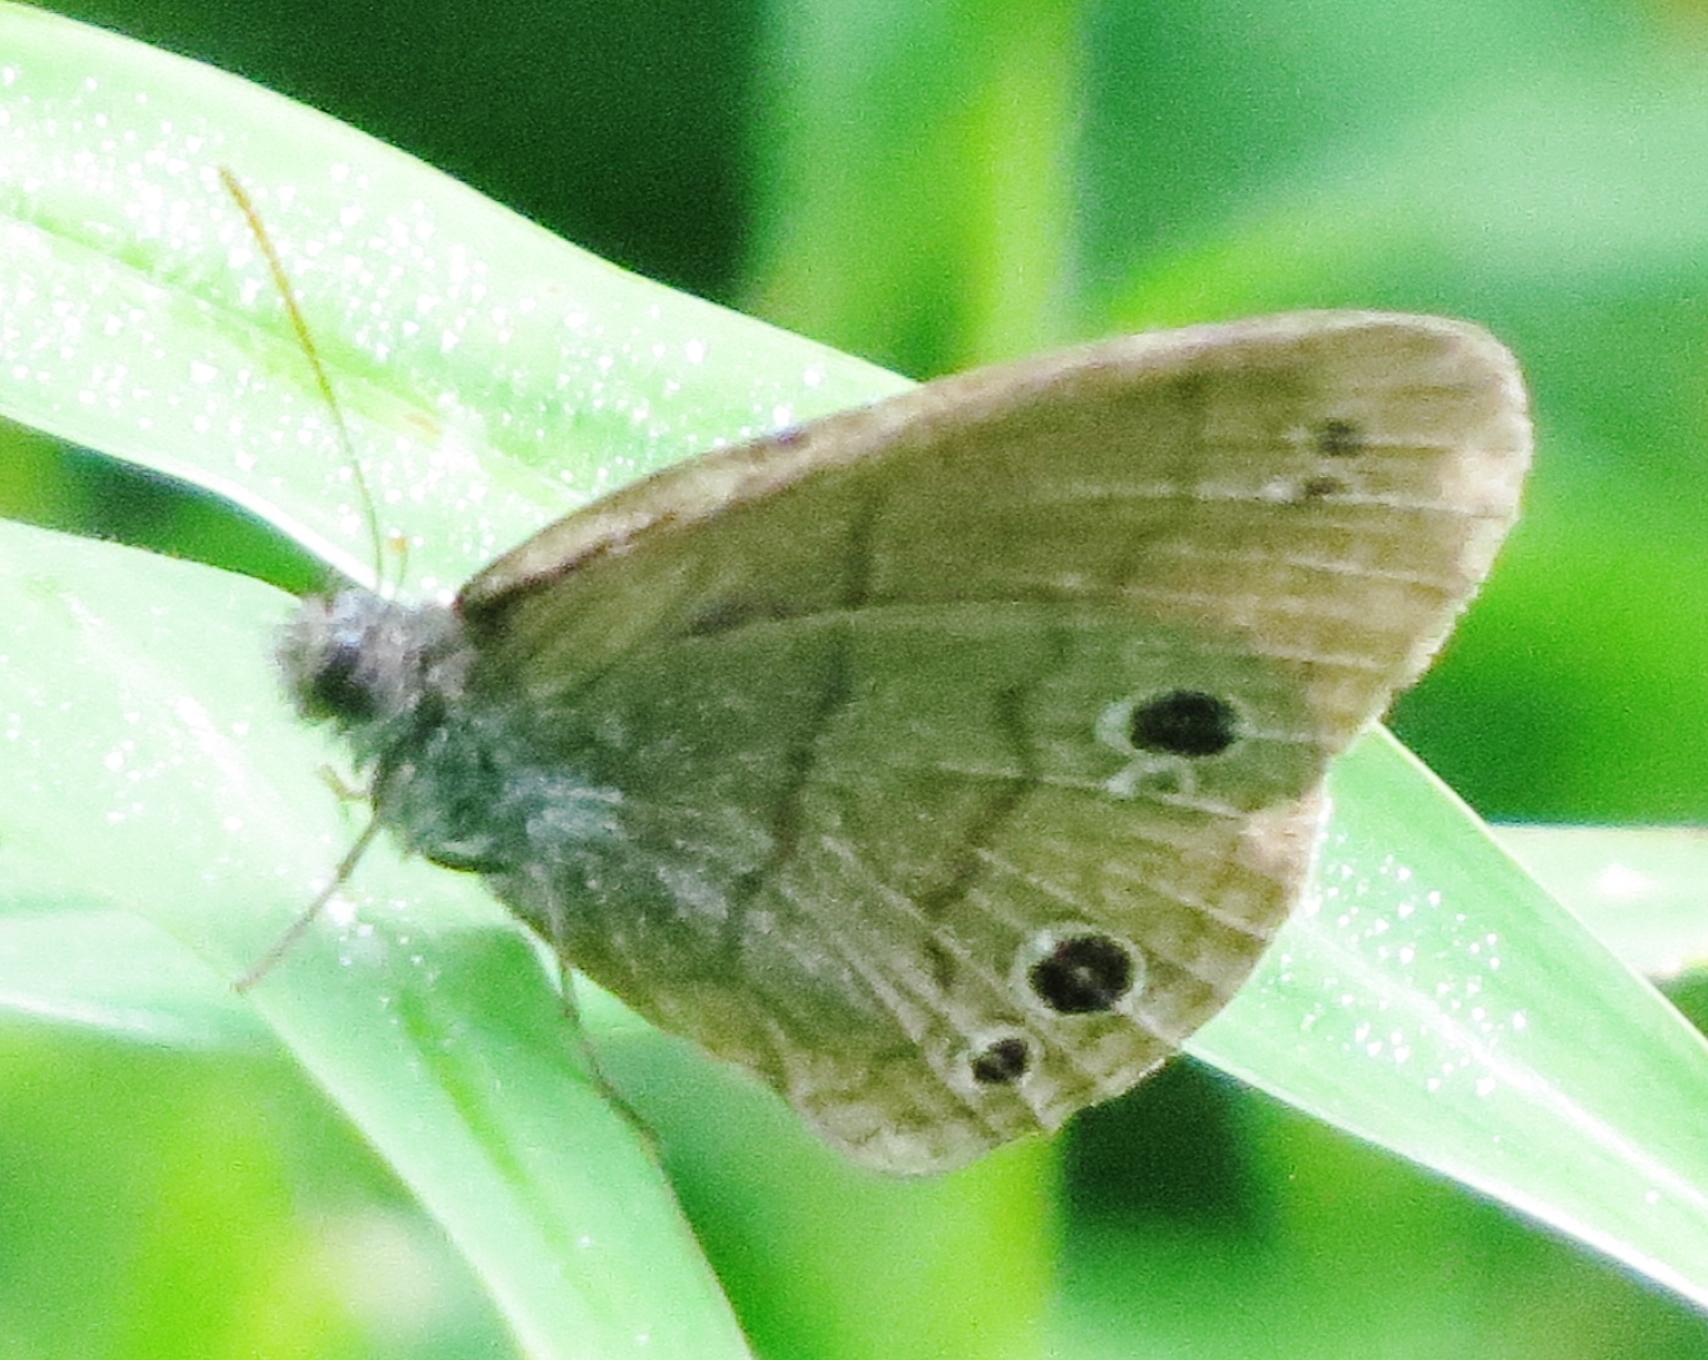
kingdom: Animalia
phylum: Arthropoda
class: Insecta
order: Lepidoptera
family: Nymphalidae
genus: Hermeuptychia
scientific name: Hermeuptychia hermes
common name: Hermes satyr
